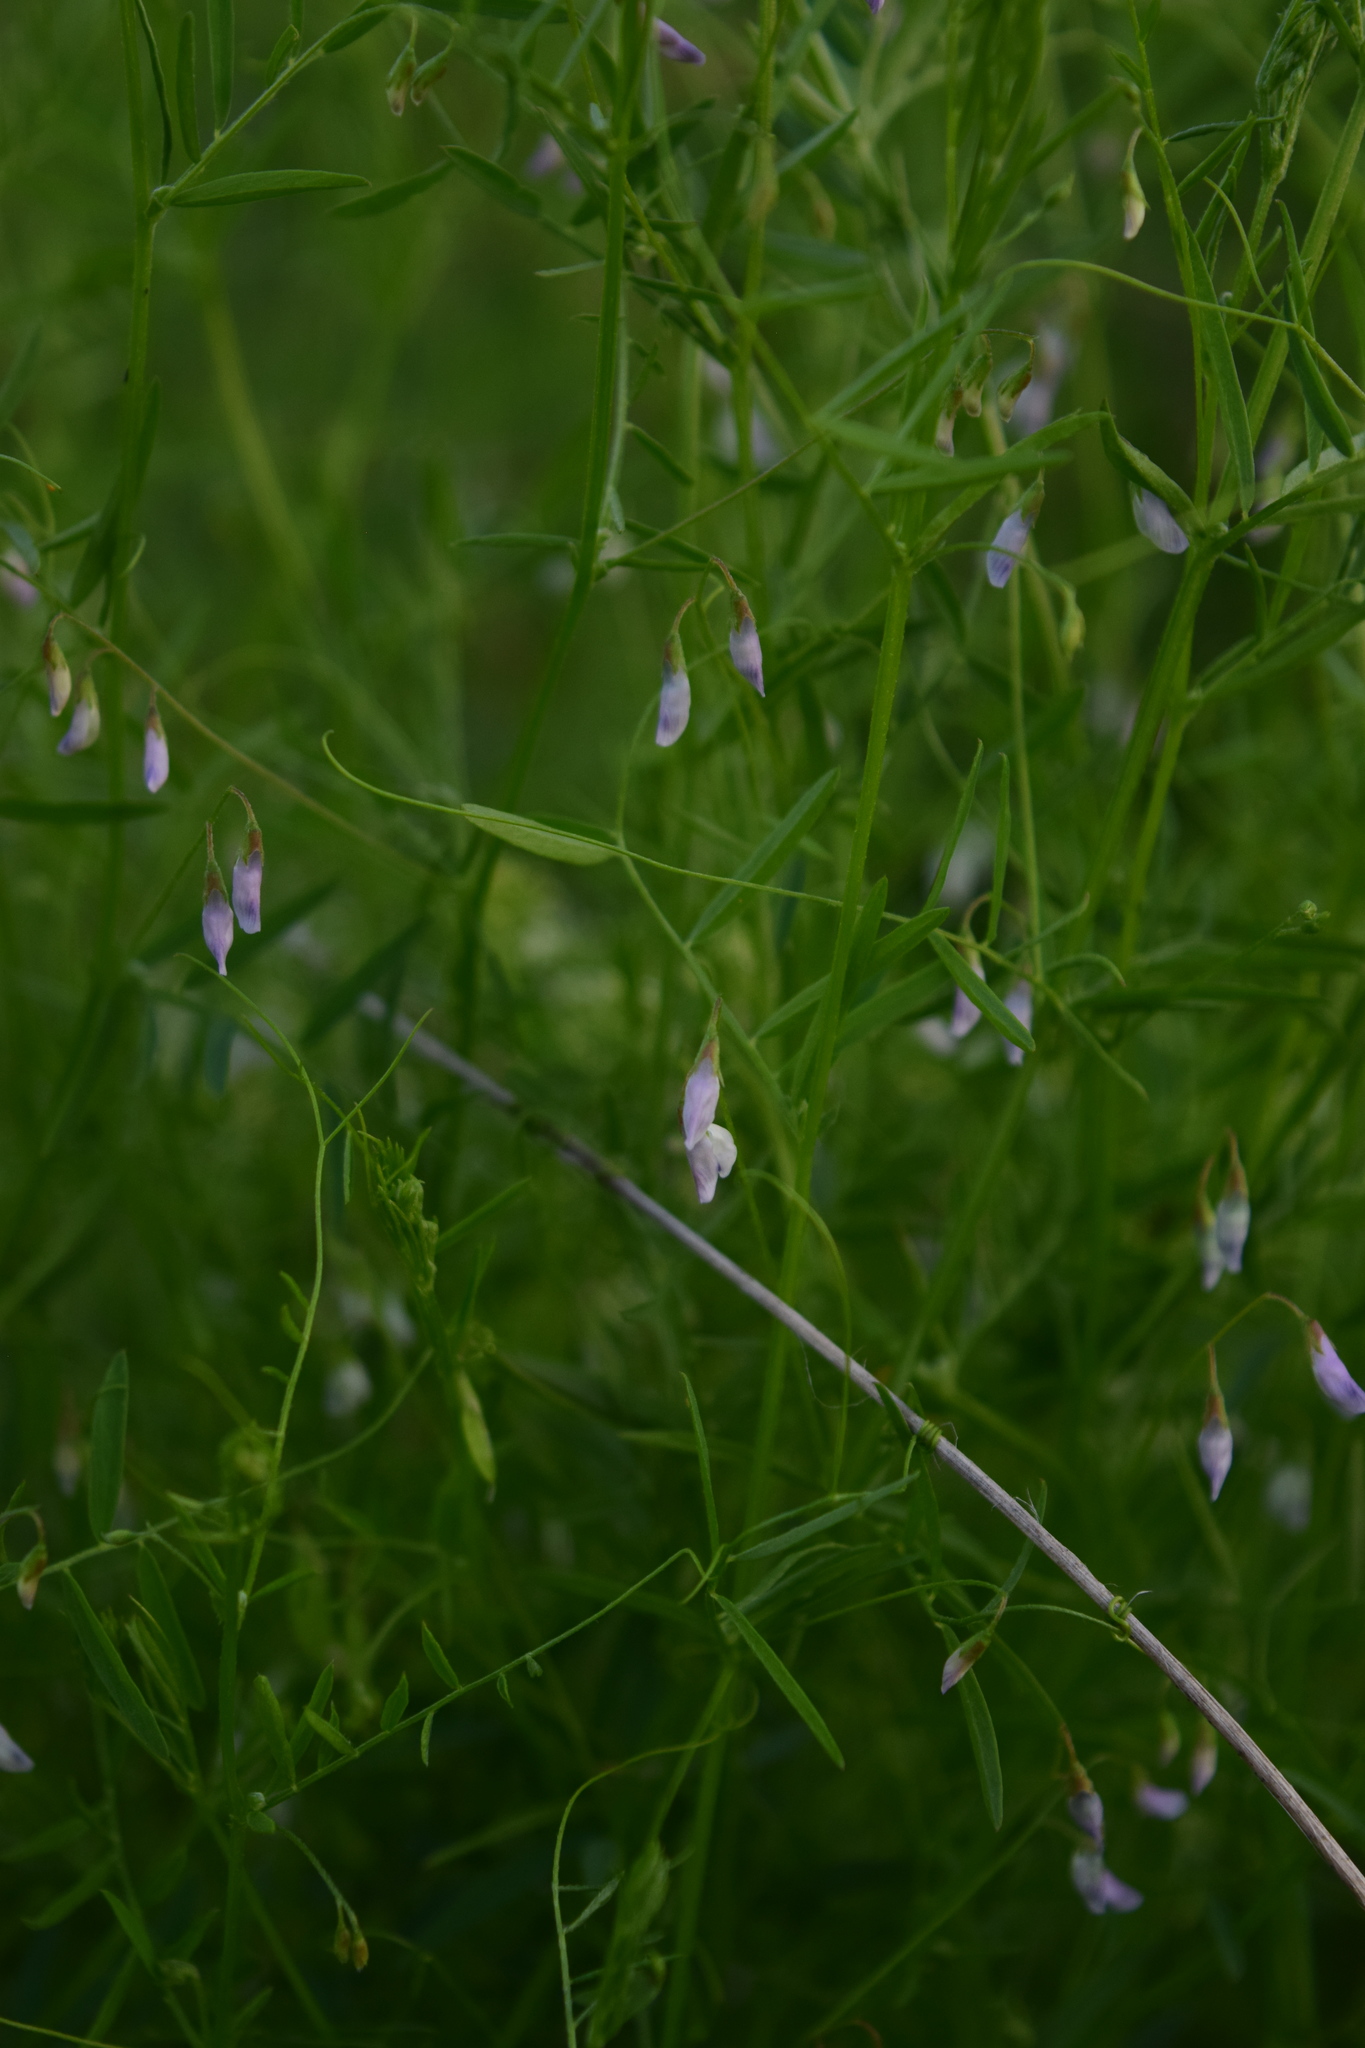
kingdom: Plantae
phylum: Tracheophyta
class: Magnoliopsida
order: Fabales
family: Fabaceae
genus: Vicia
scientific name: Vicia tetrasperma
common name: Smooth tare
